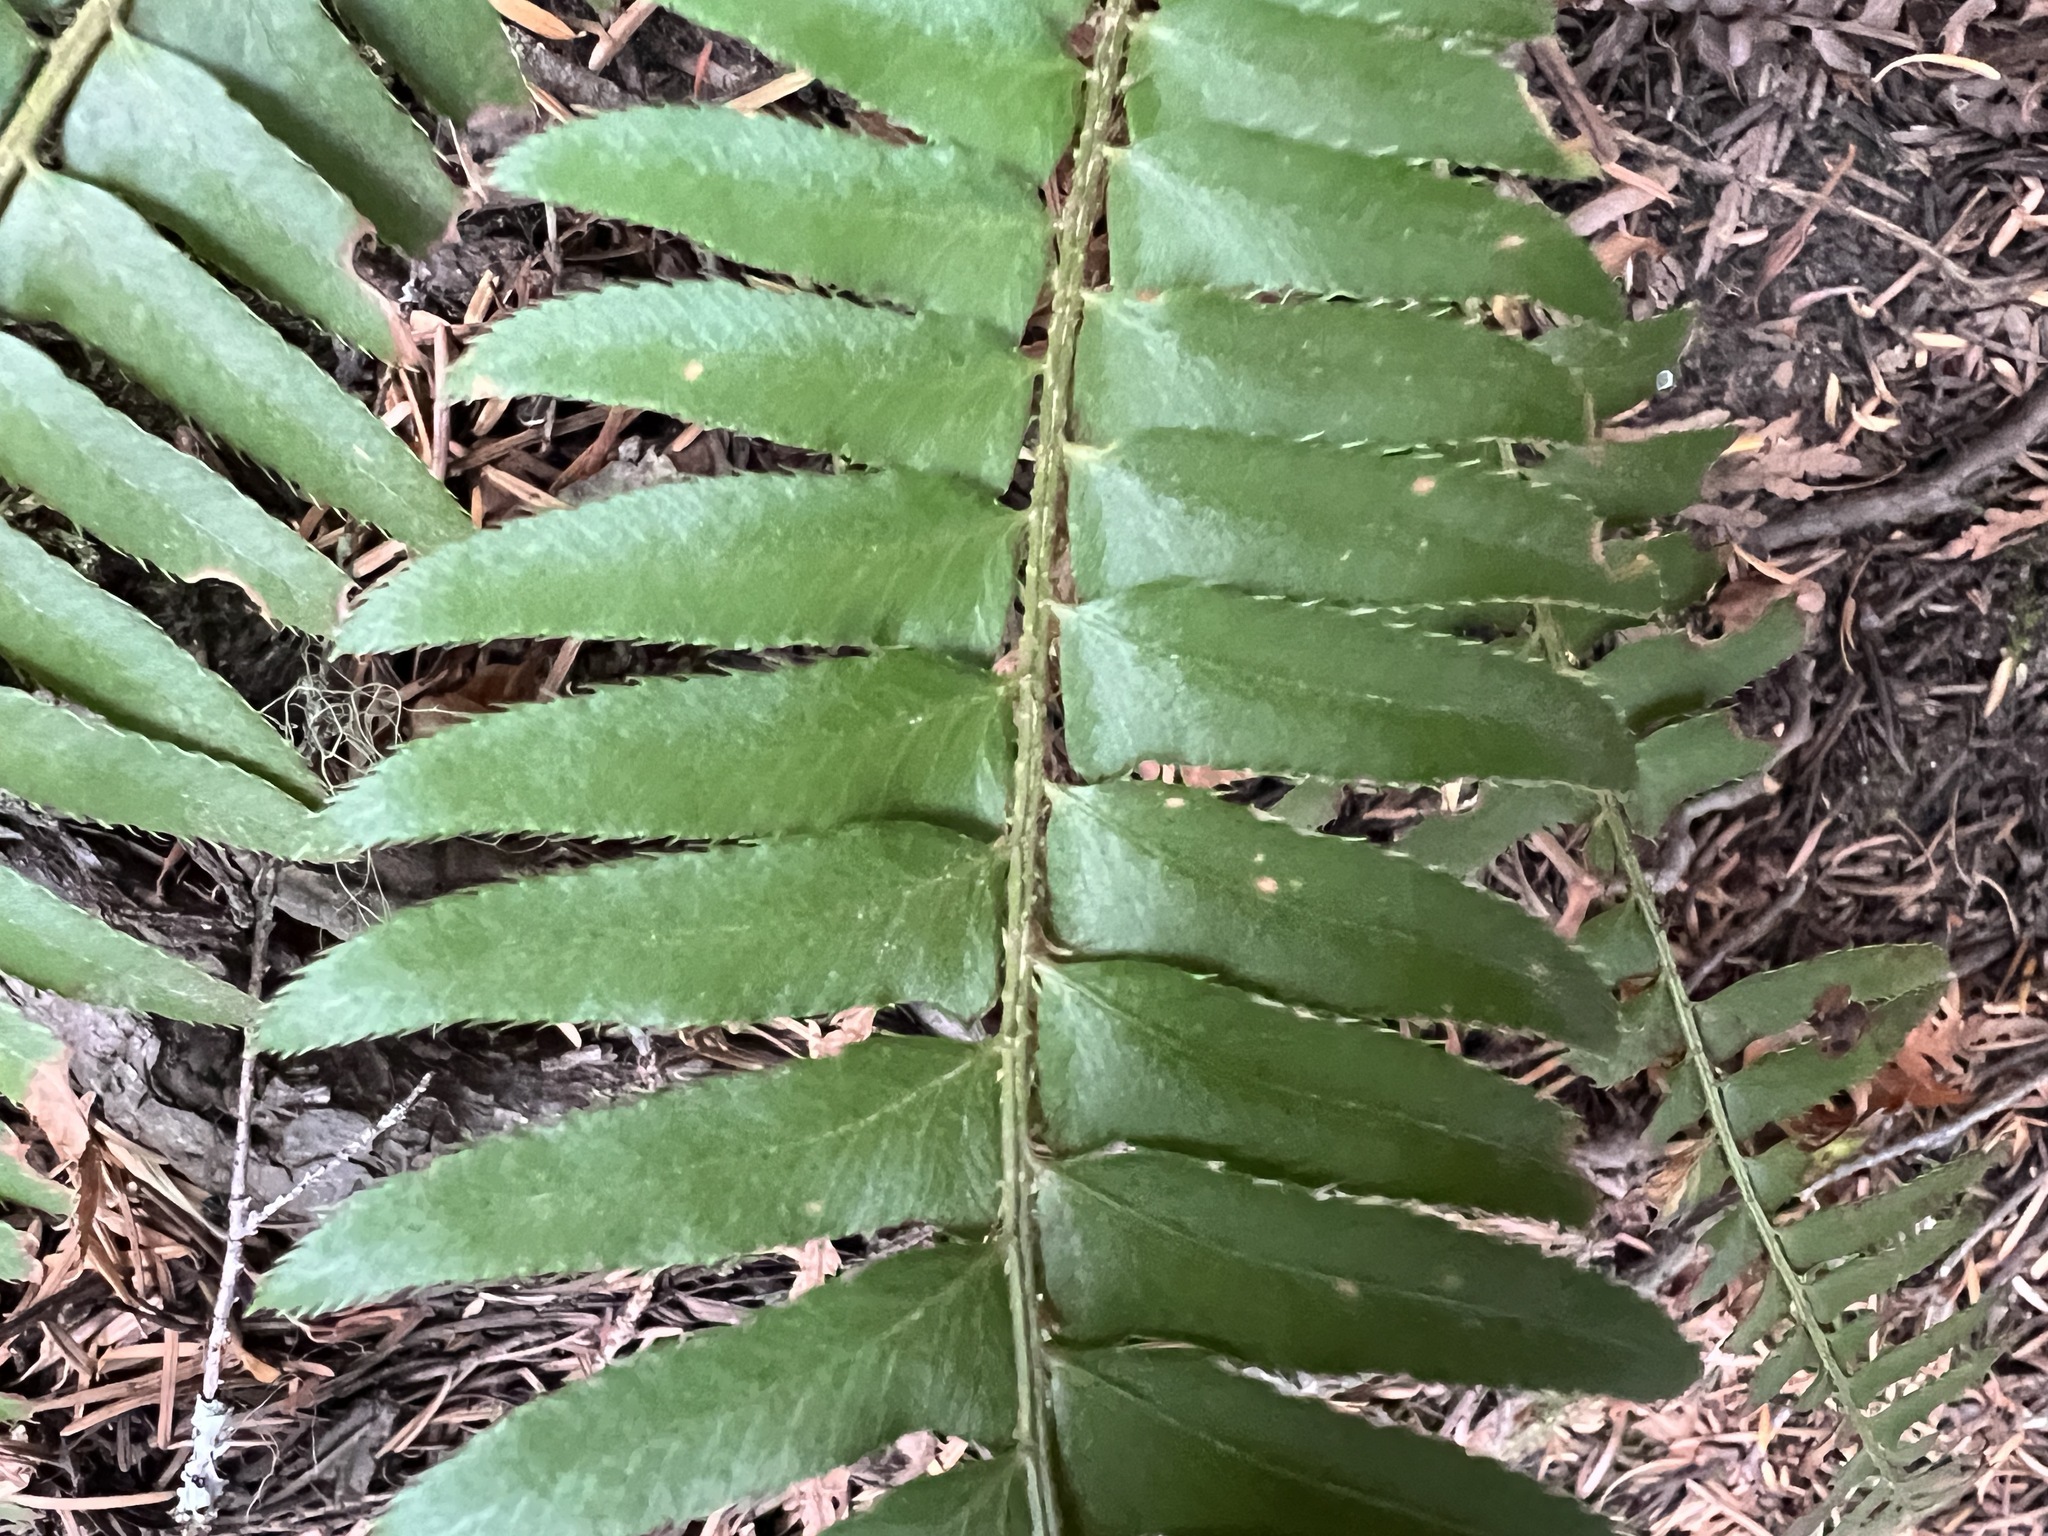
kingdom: Plantae
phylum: Tracheophyta
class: Polypodiopsida
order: Polypodiales
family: Dryopteridaceae
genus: Polystichum
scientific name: Polystichum munitum
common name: Western sword-fern
